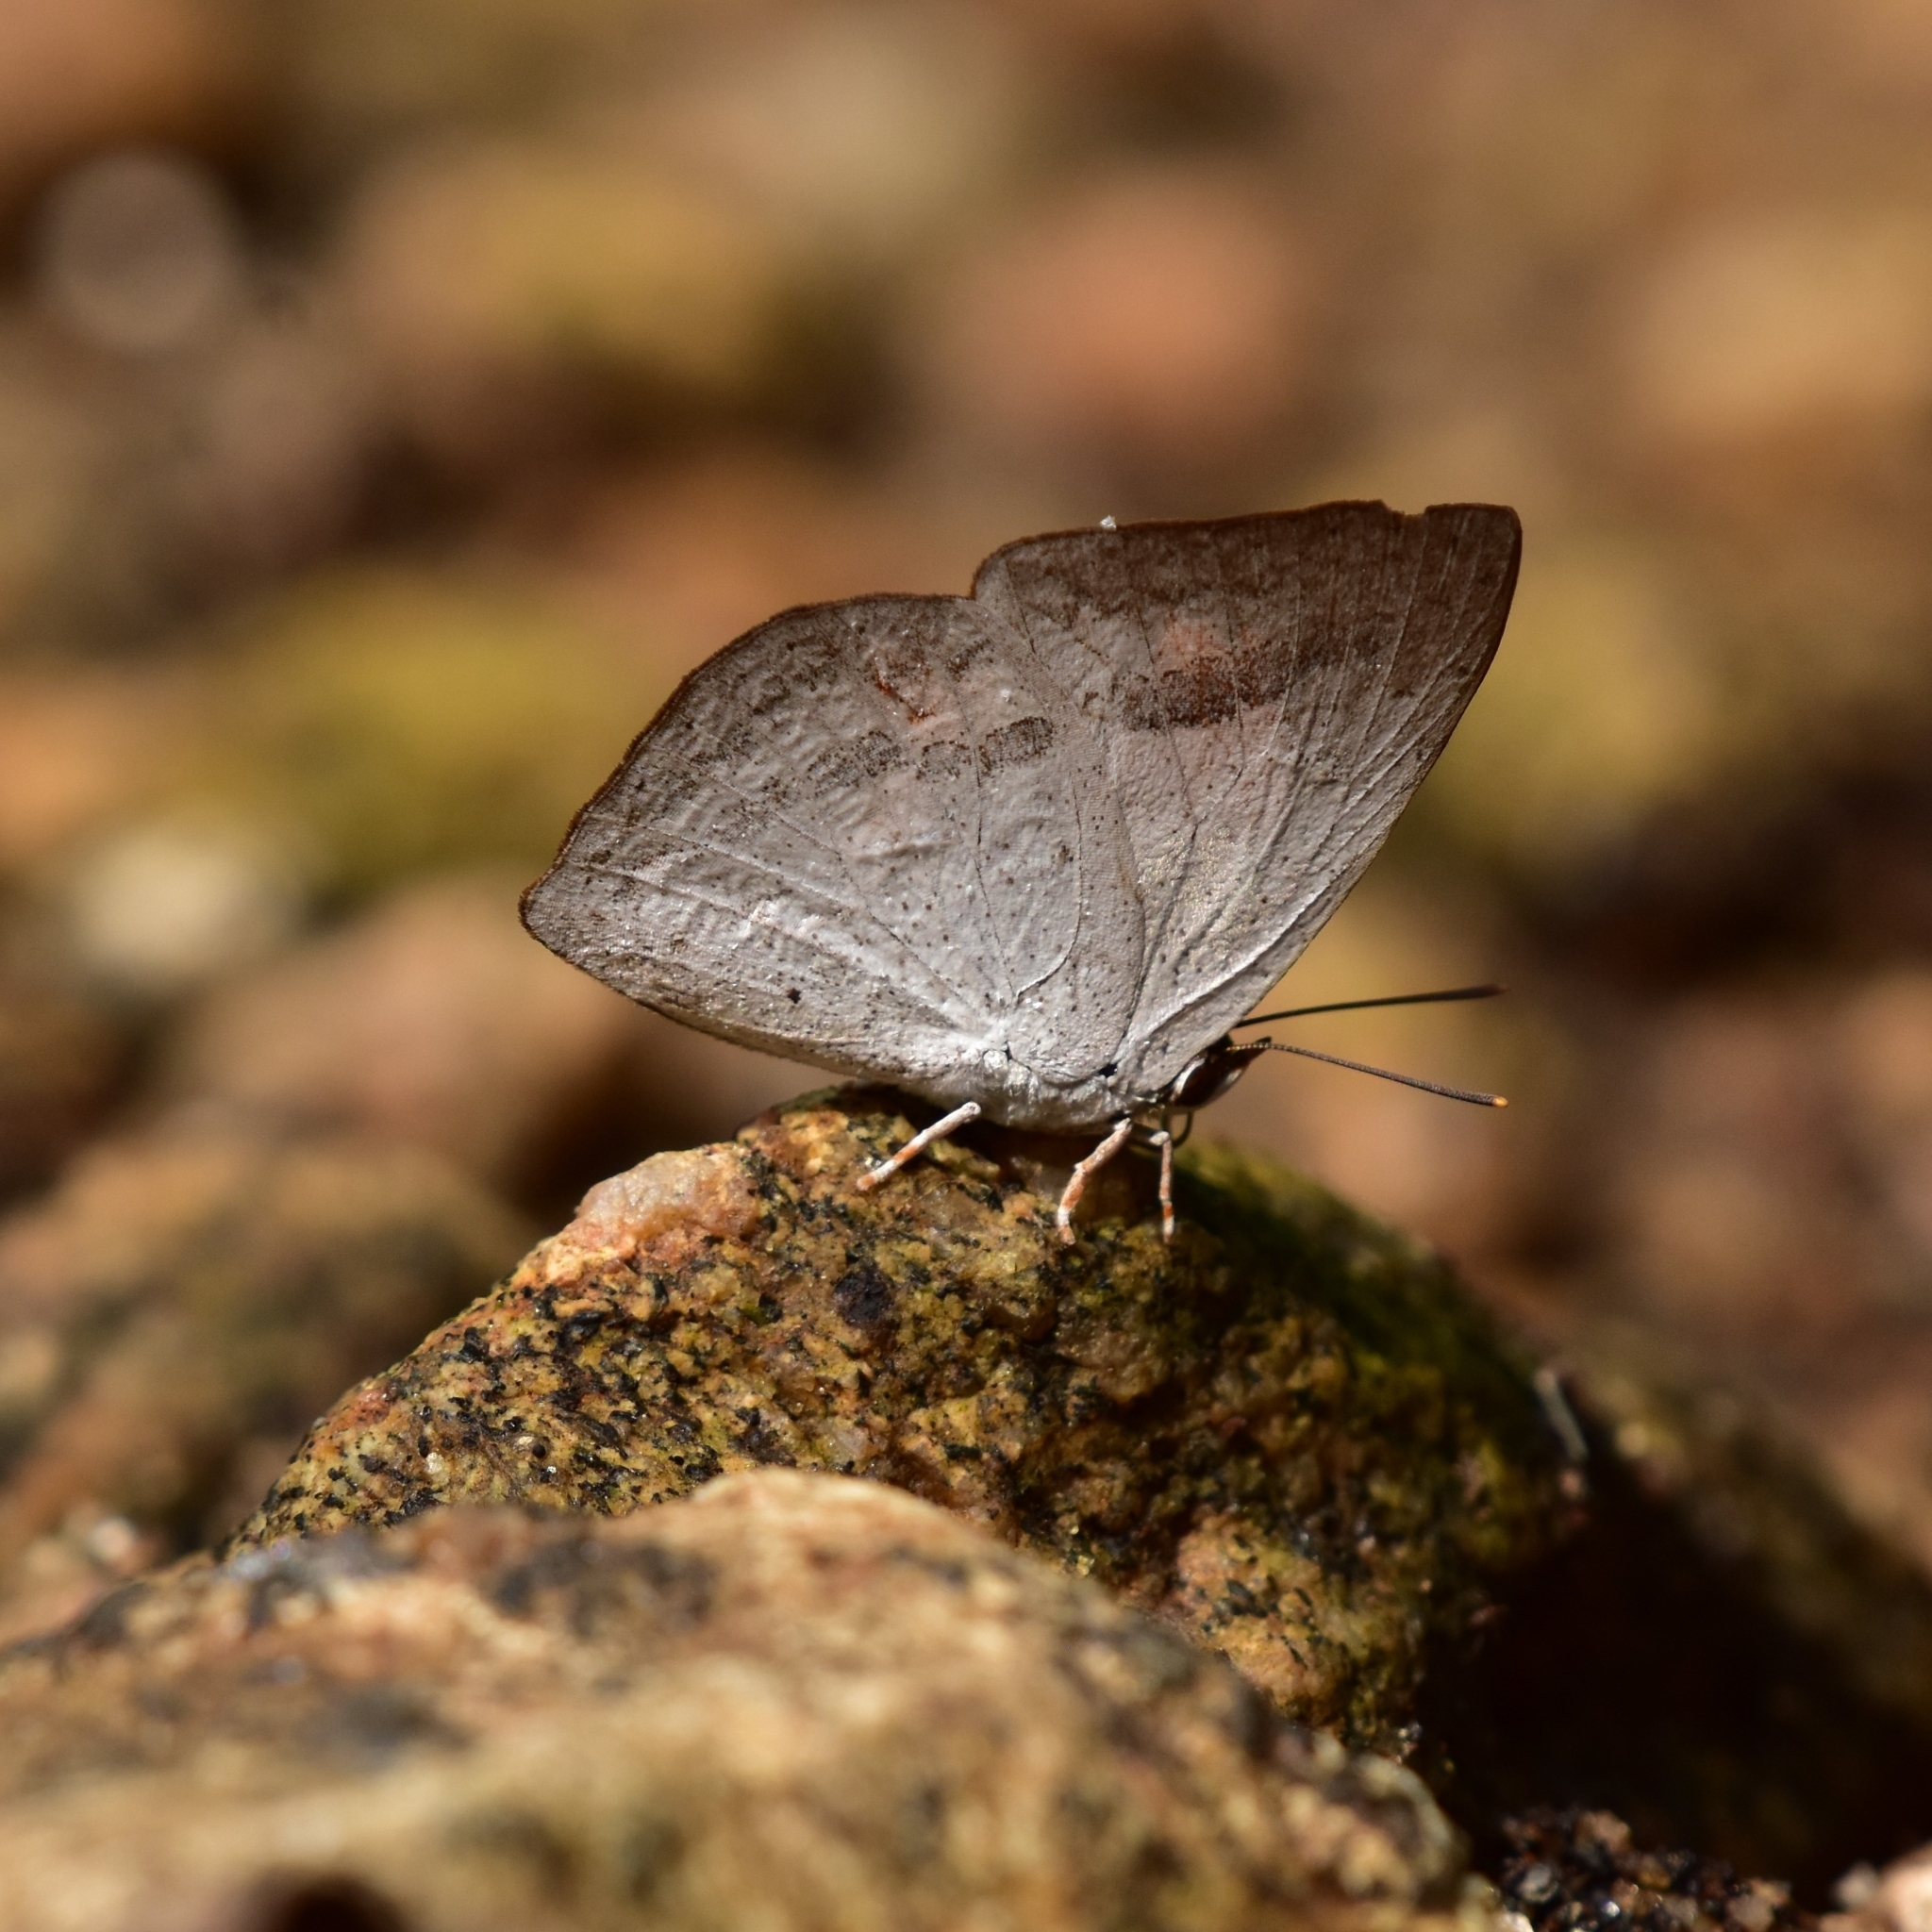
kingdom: Animalia
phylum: Arthropoda
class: Insecta
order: Lepidoptera
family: Lycaenidae
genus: Curetis
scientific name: Curetis siva
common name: Shiva sunbeam
